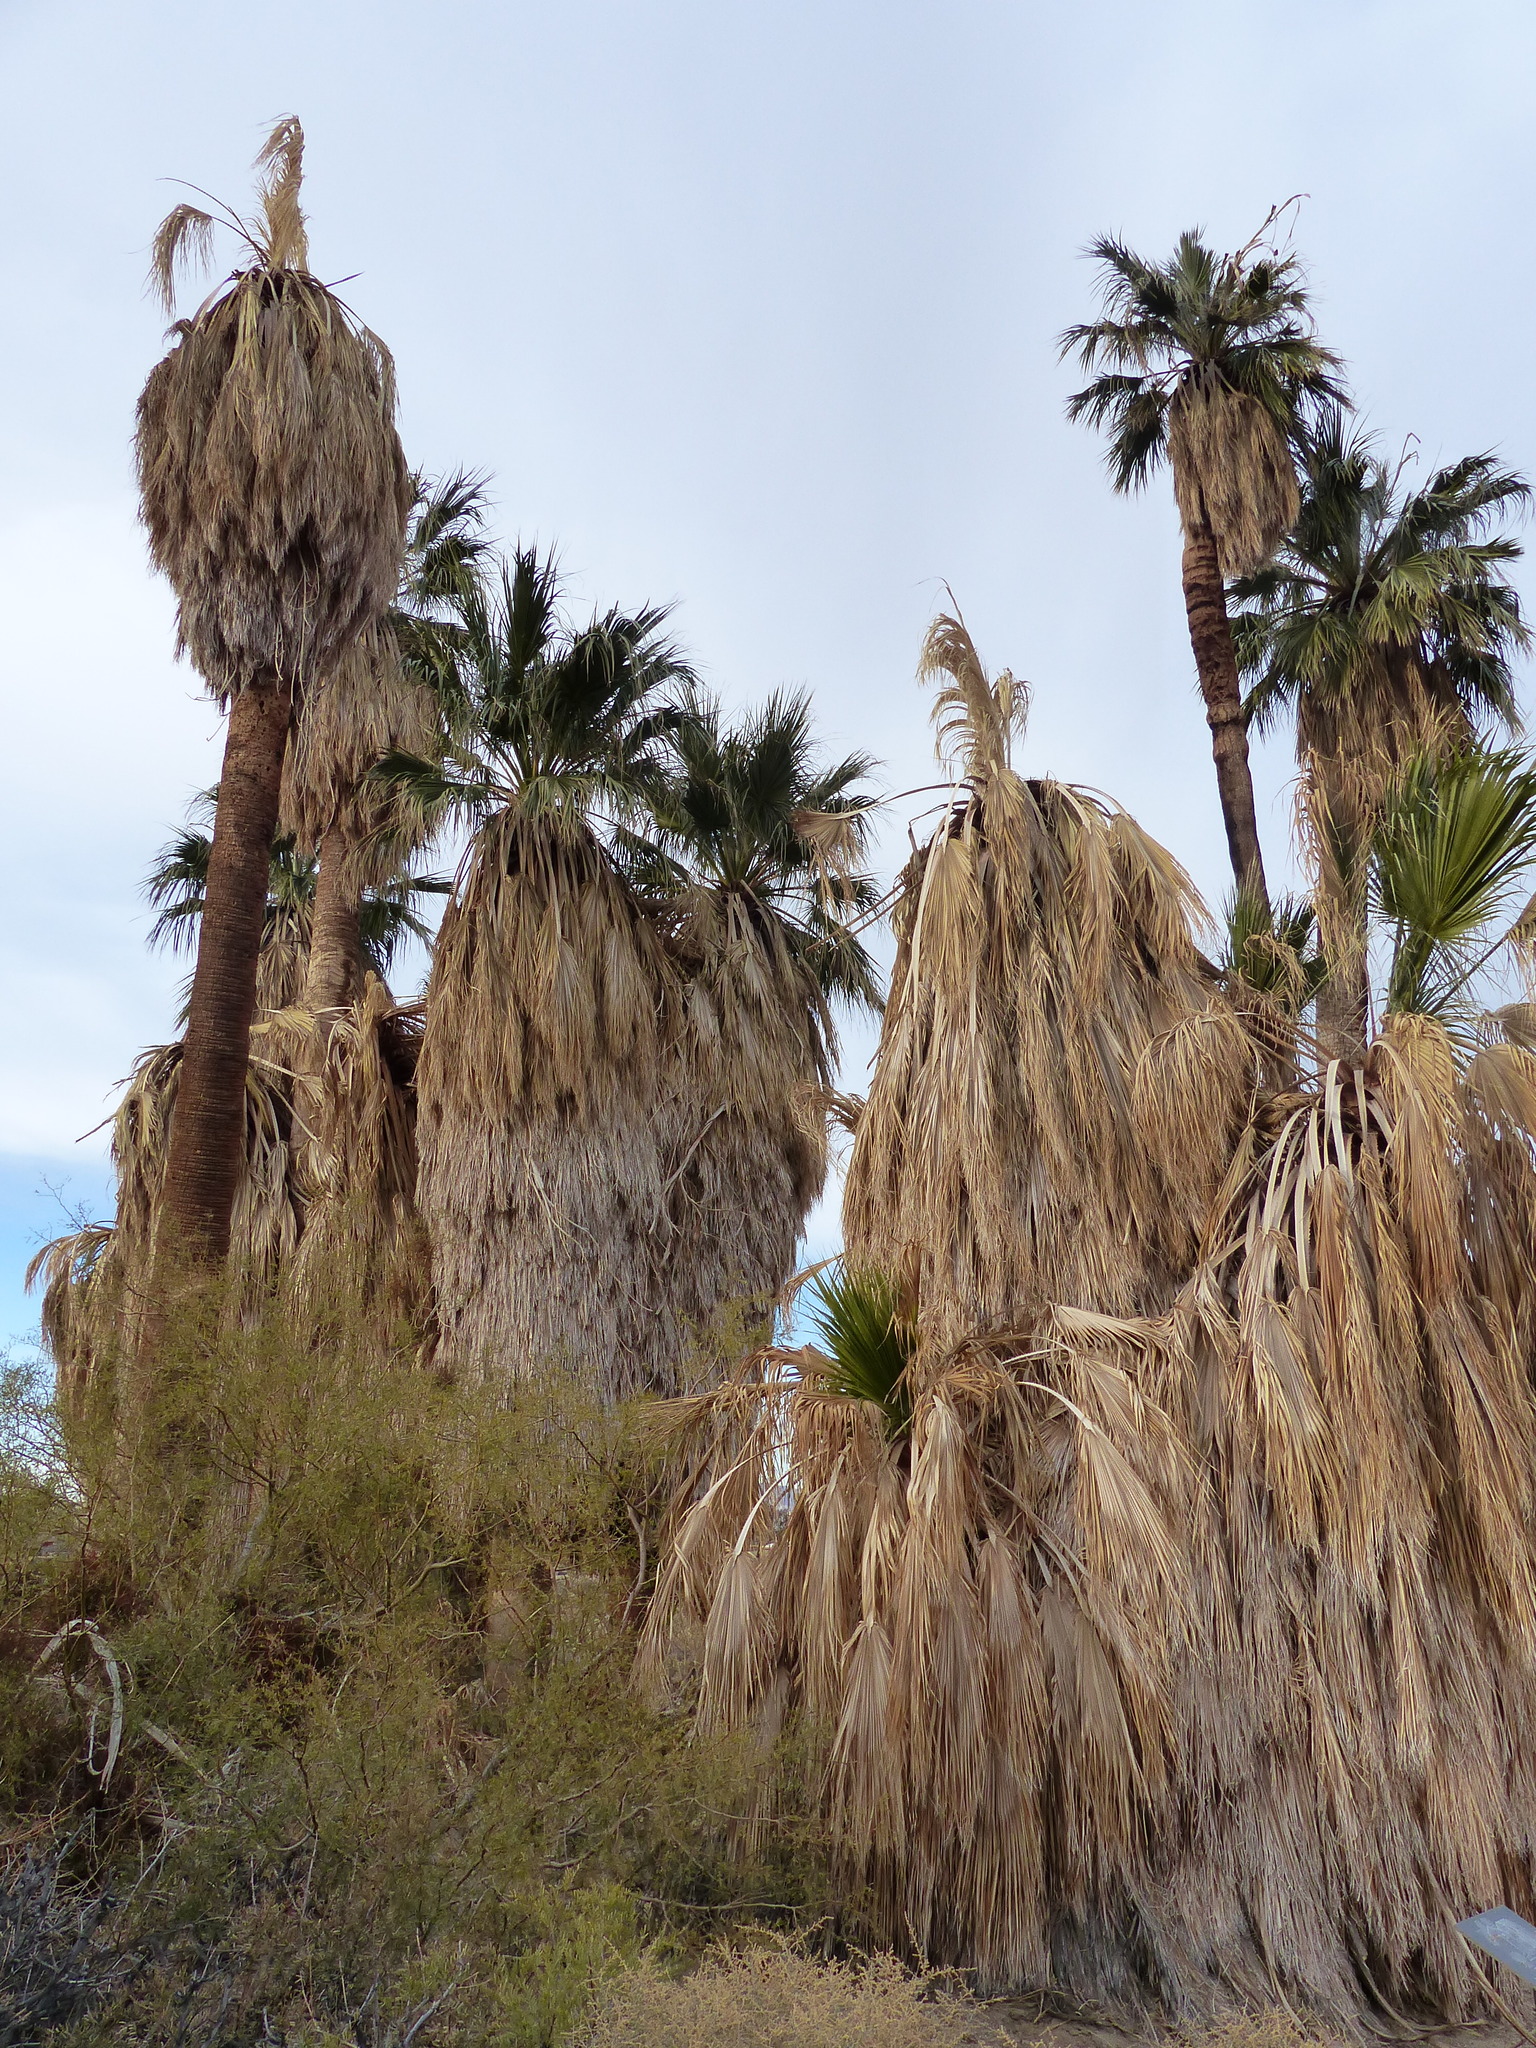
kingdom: Plantae
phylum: Tracheophyta
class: Liliopsida
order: Arecales
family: Arecaceae
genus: Washingtonia
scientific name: Washingtonia filifera
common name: California fan palm
